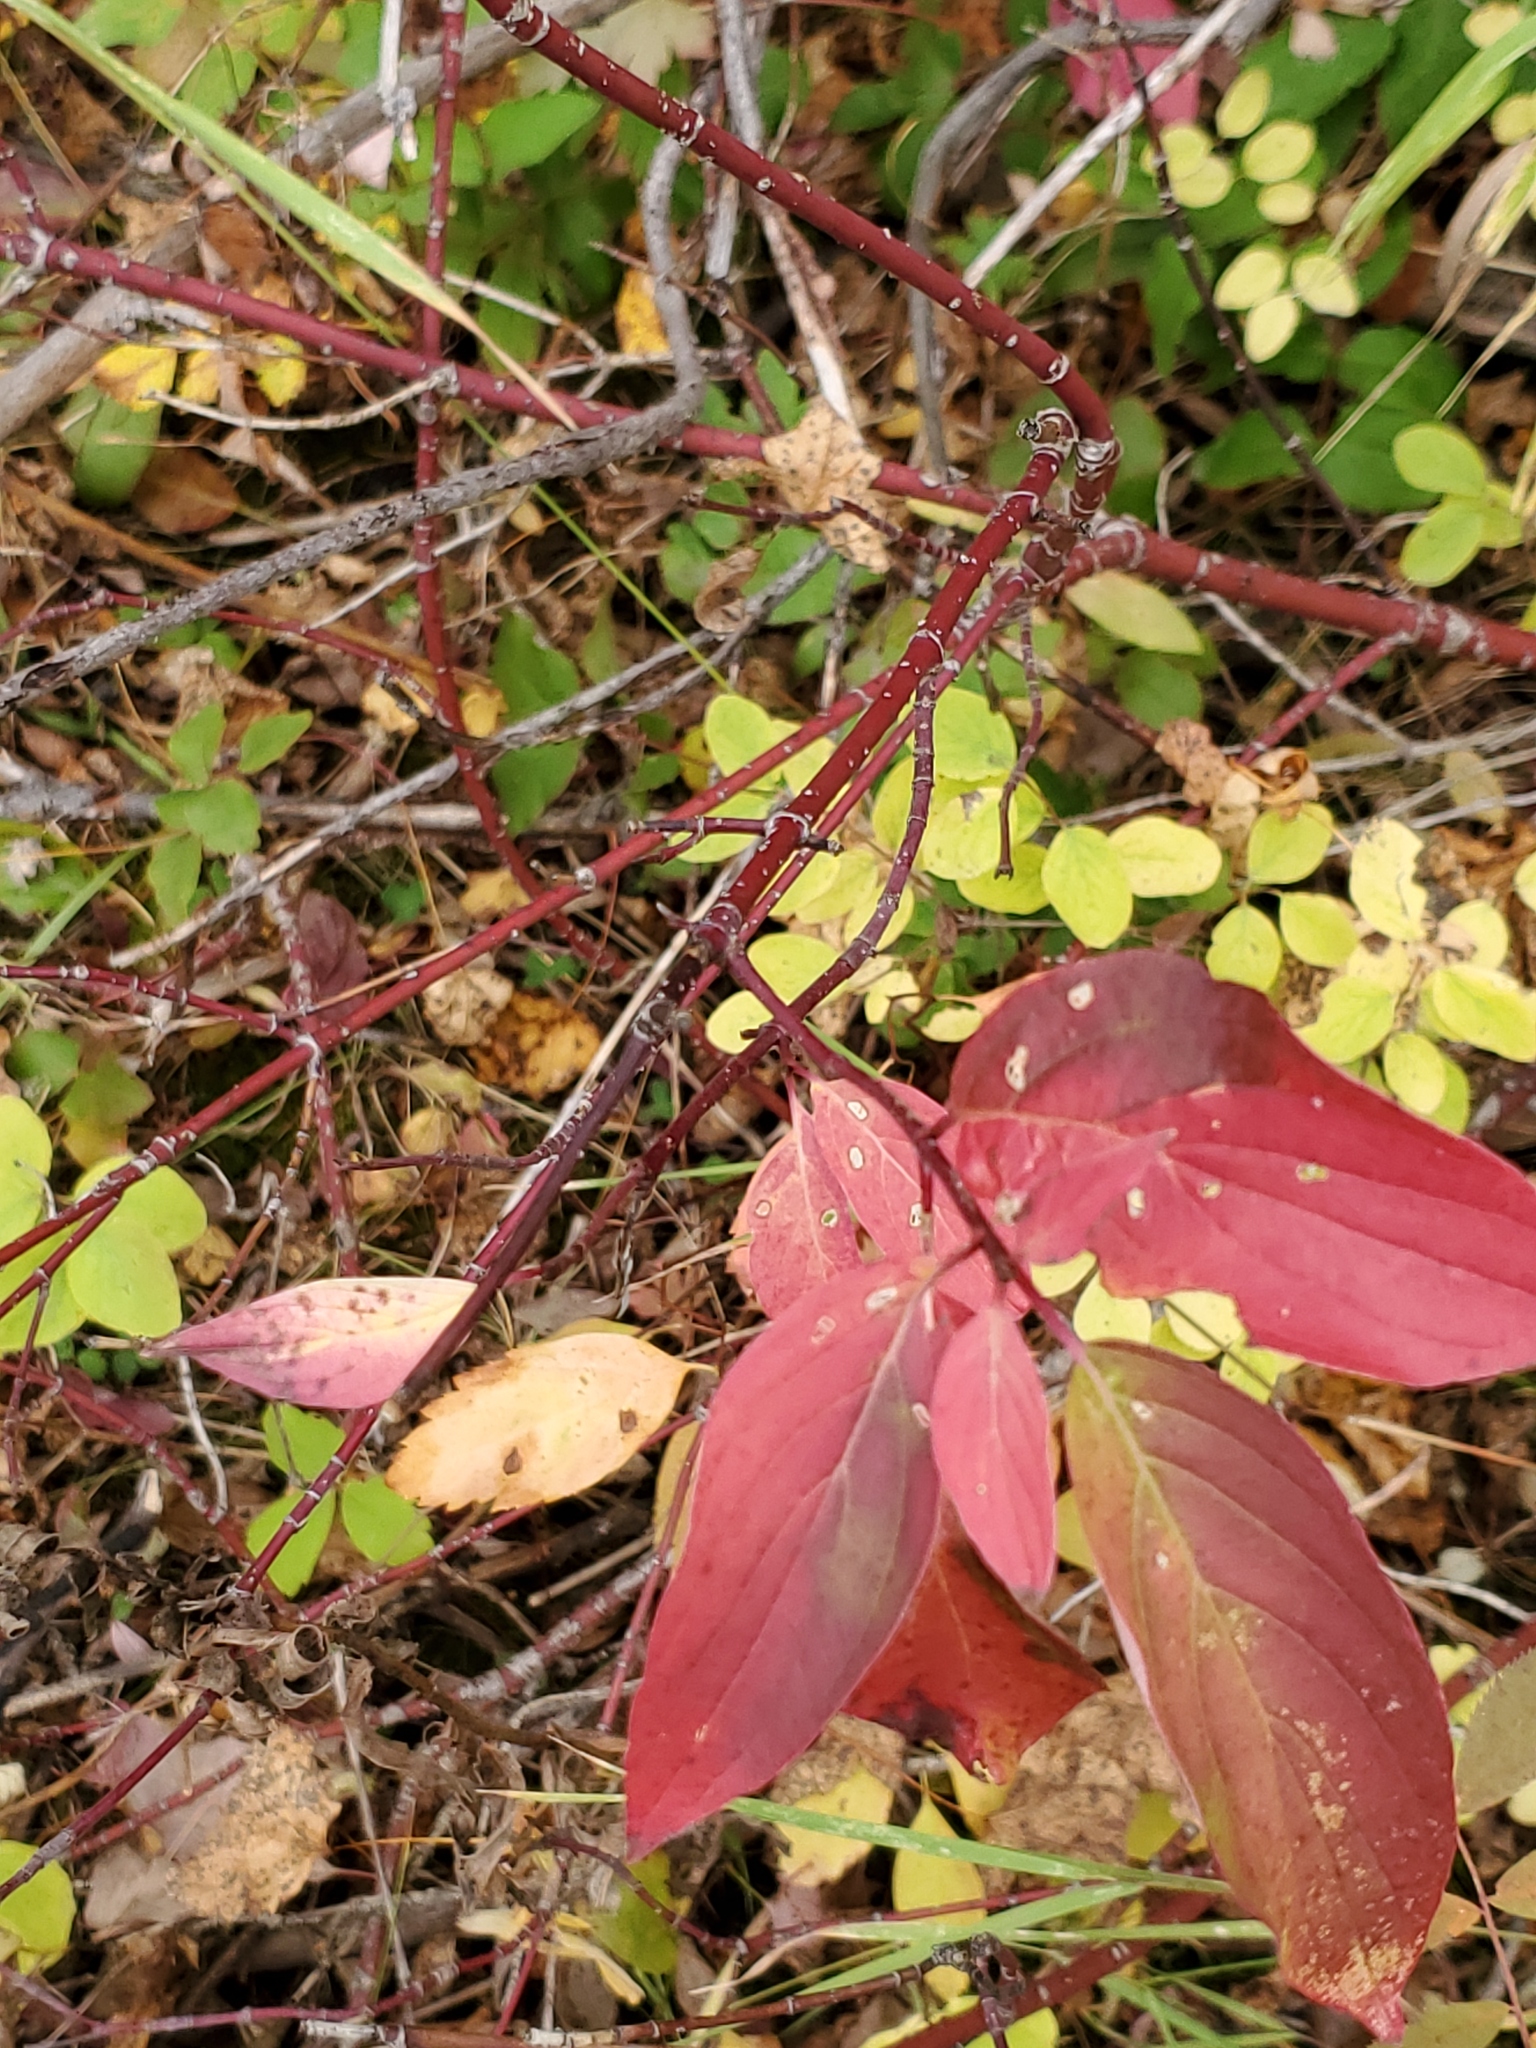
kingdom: Plantae
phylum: Tracheophyta
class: Magnoliopsida
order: Cornales
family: Cornaceae
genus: Cornus
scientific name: Cornus sericea
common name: Red-osier dogwood
